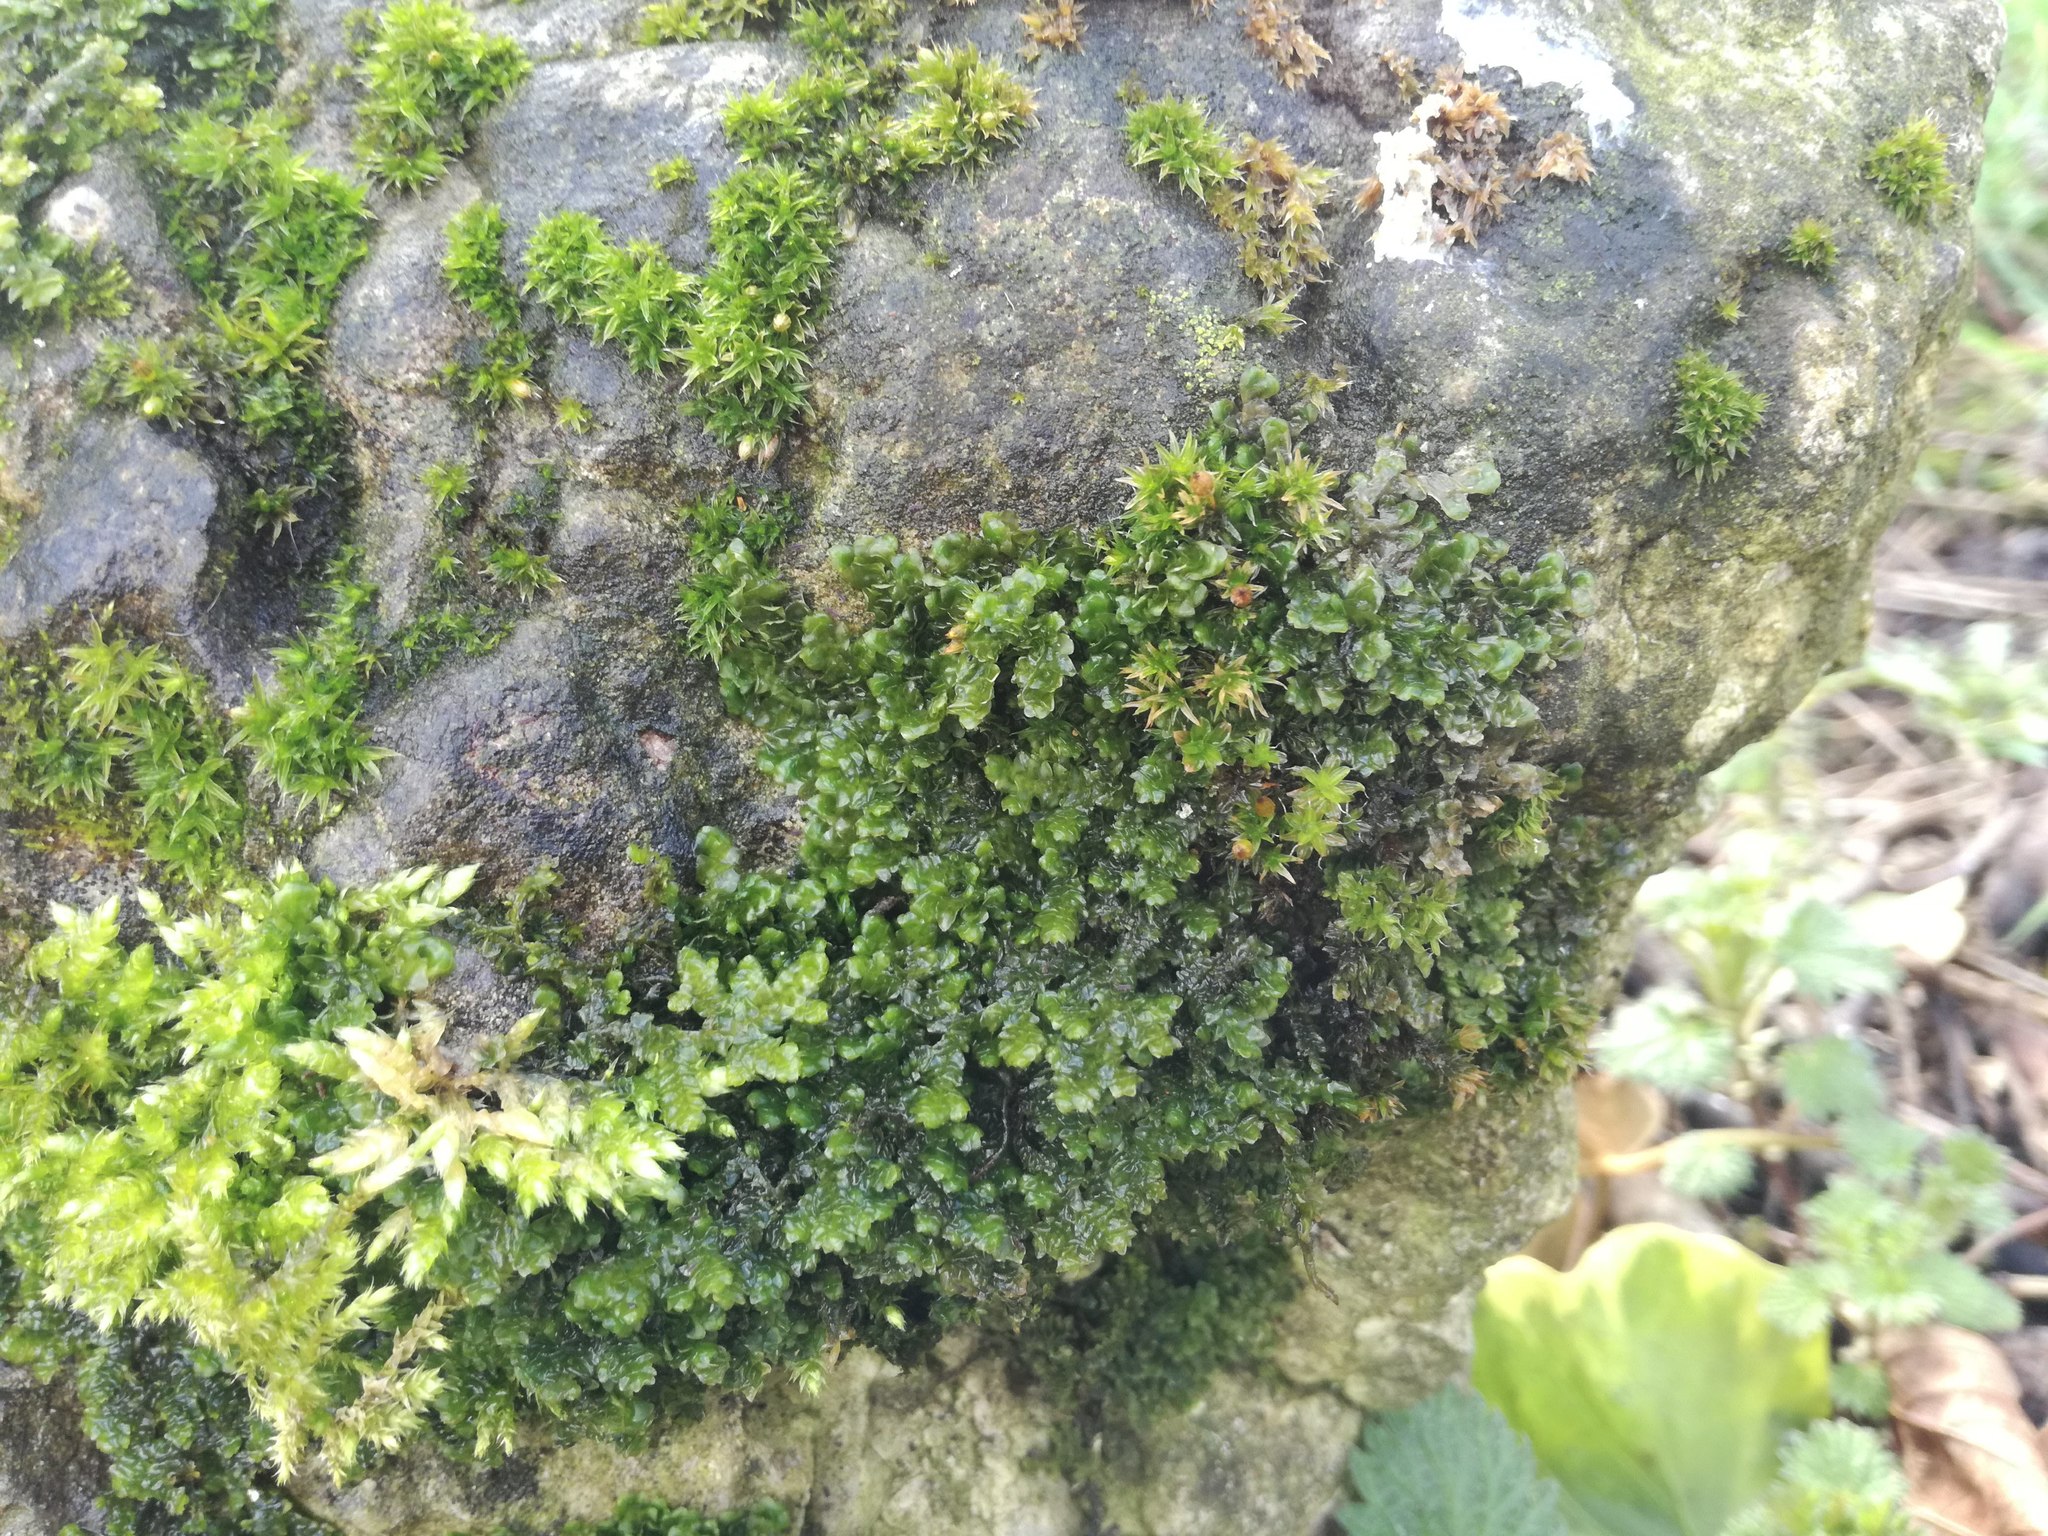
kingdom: Plantae
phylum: Marchantiophyta
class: Jungermanniopsida
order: Porellales
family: Porellaceae
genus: Porella
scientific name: Porella platyphylla
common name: Wall scalewort
